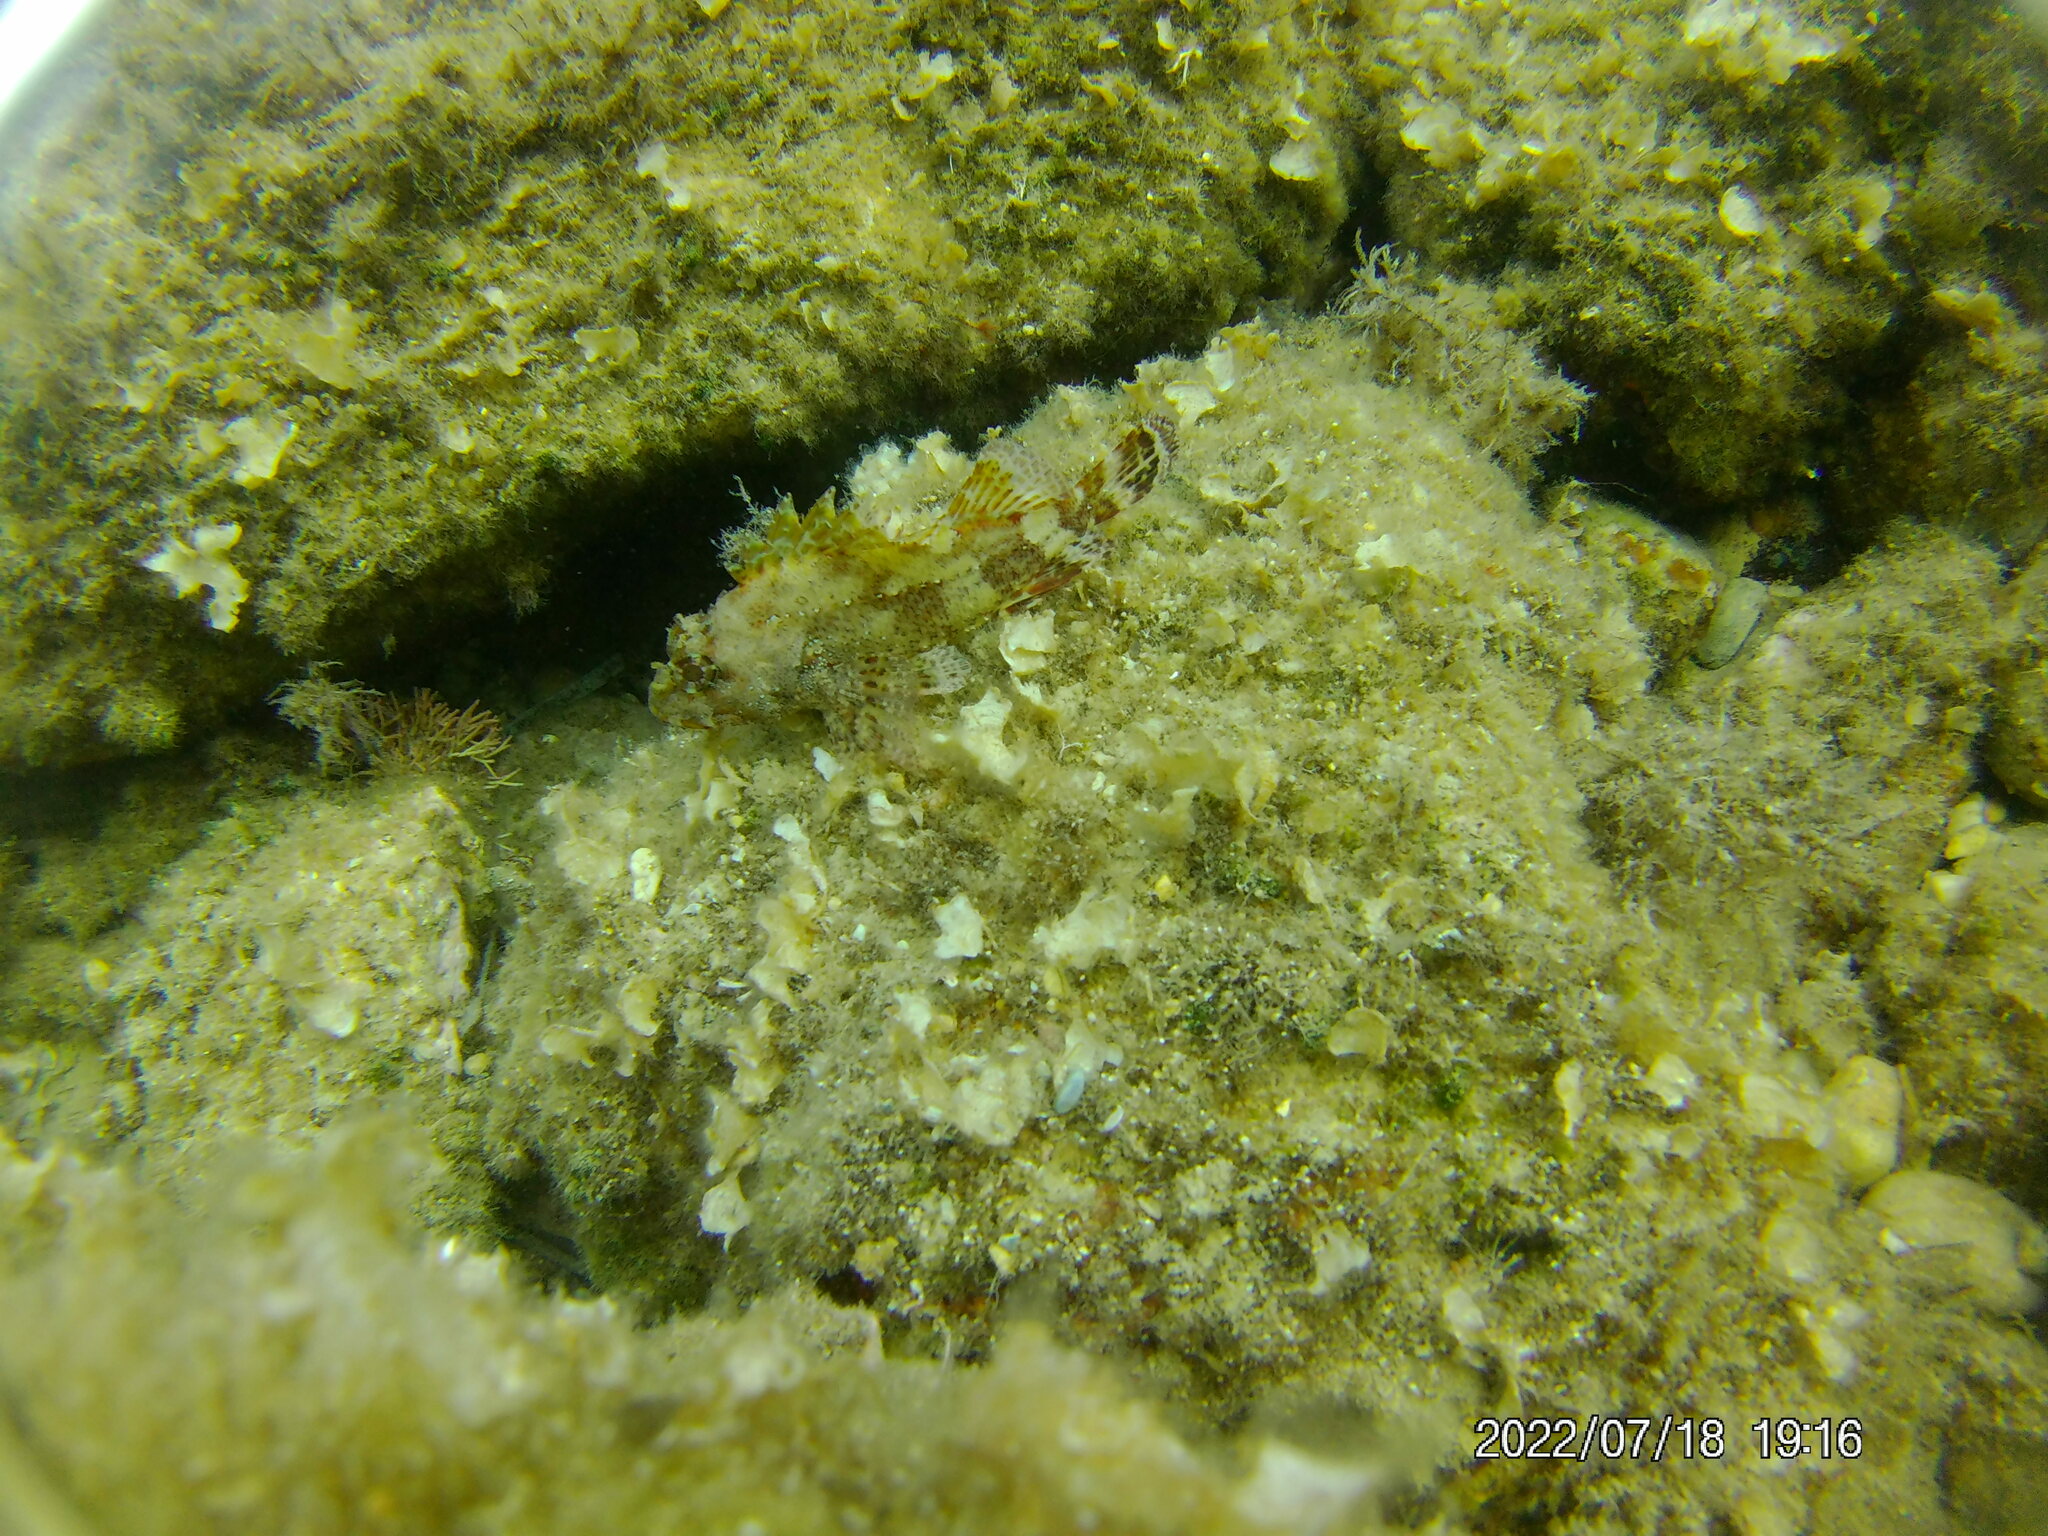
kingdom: Animalia
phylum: Chordata
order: Scorpaeniformes
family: Scorpaenidae
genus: Scorpaena
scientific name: Scorpaena maderensis
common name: Madeira rockfish
